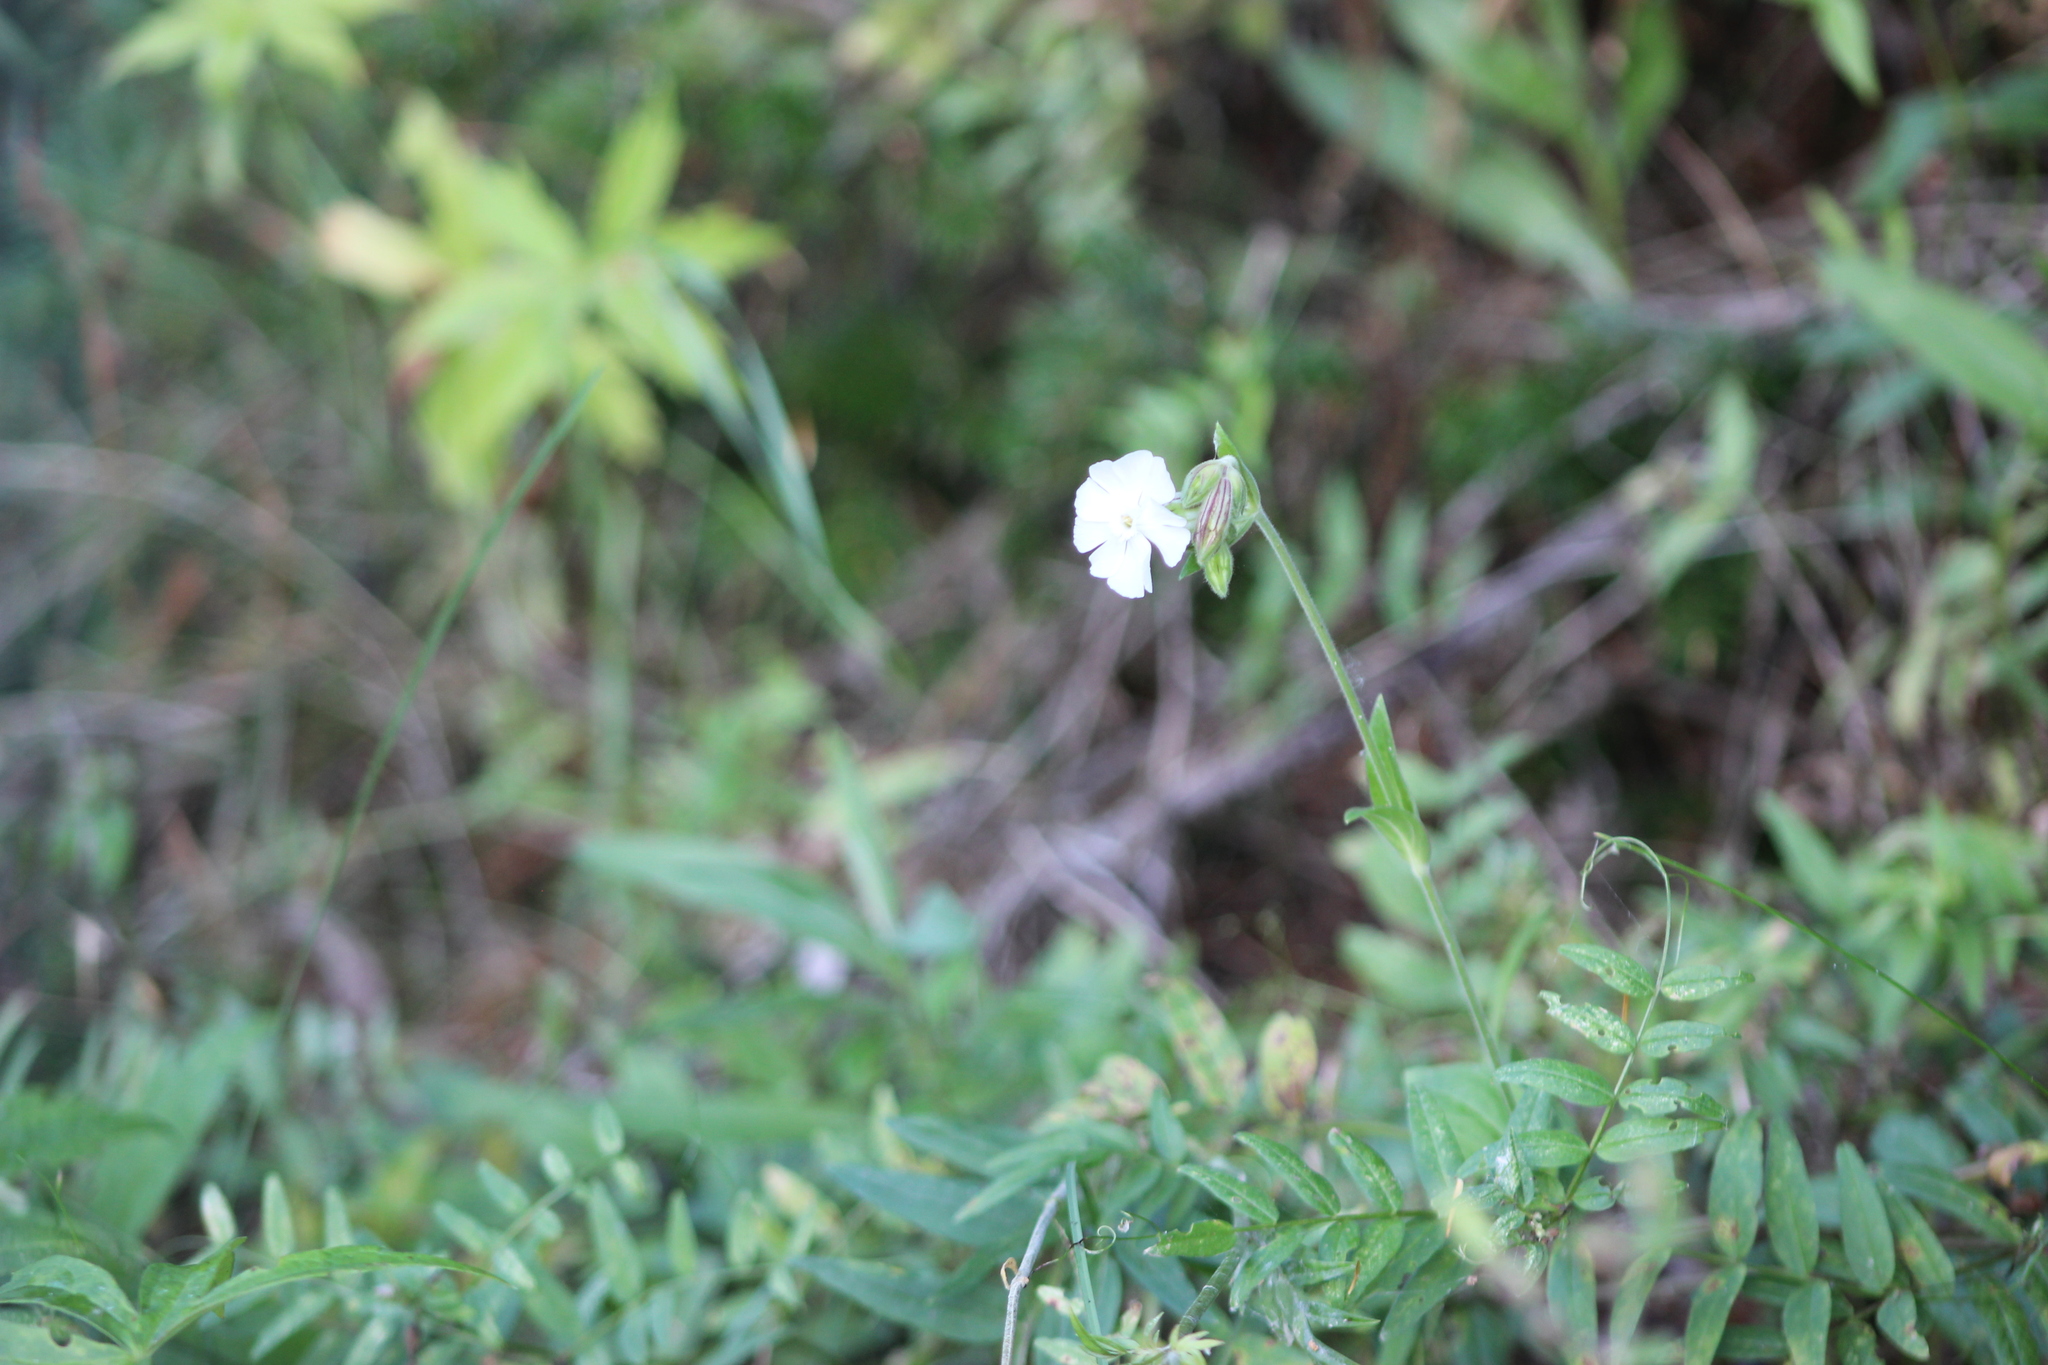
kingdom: Plantae
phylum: Tracheophyta
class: Magnoliopsida
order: Caryophyllales
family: Caryophyllaceae
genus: Silene
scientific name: Silene latifolia
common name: White campion
